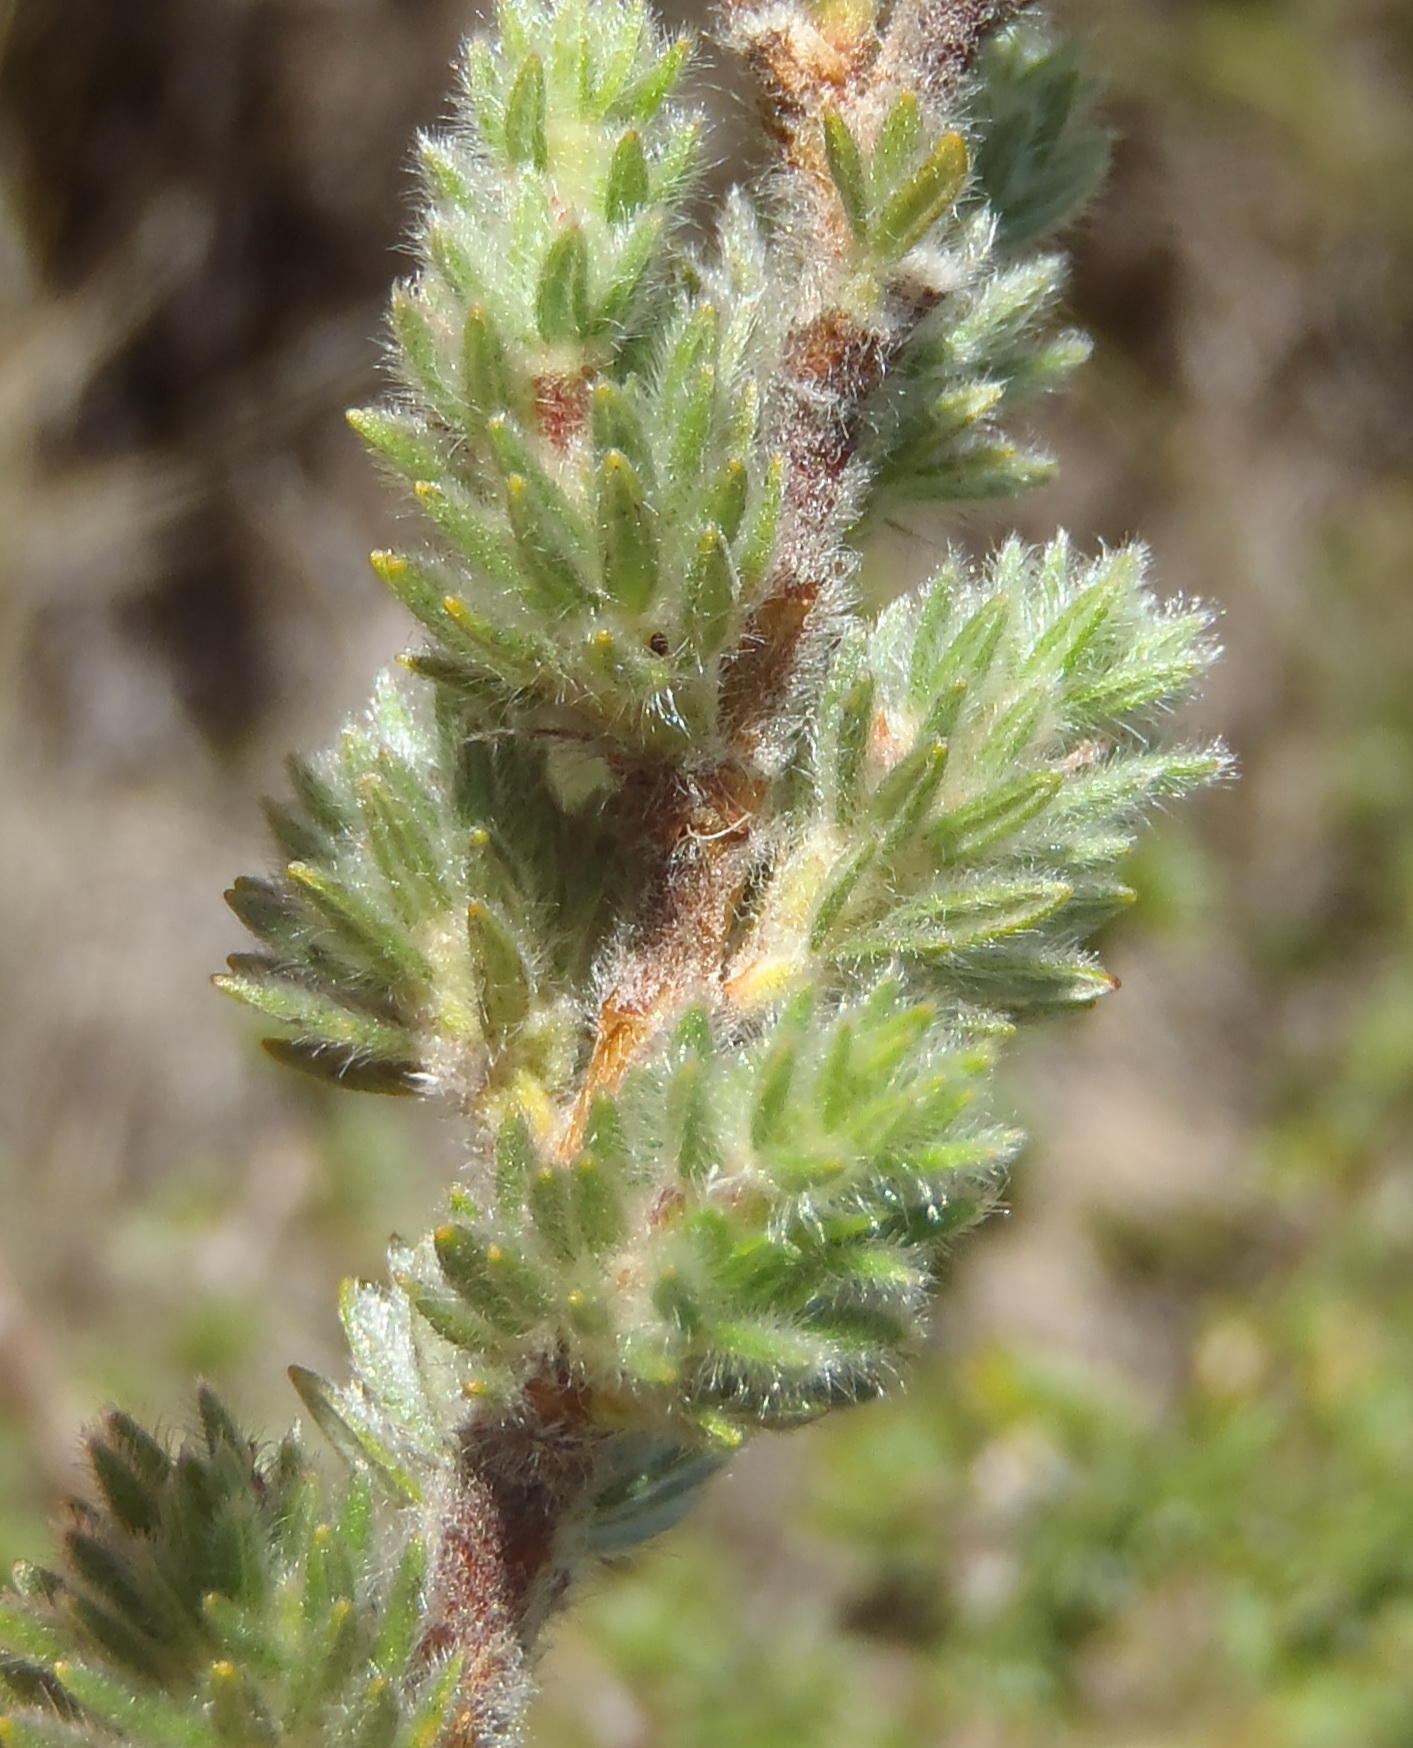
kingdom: Plantae
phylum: Tracheophyta
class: Magnoliopsida
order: Rosales
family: Rosaceae
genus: Cliffortia
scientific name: Cliffortia eriocephalina
